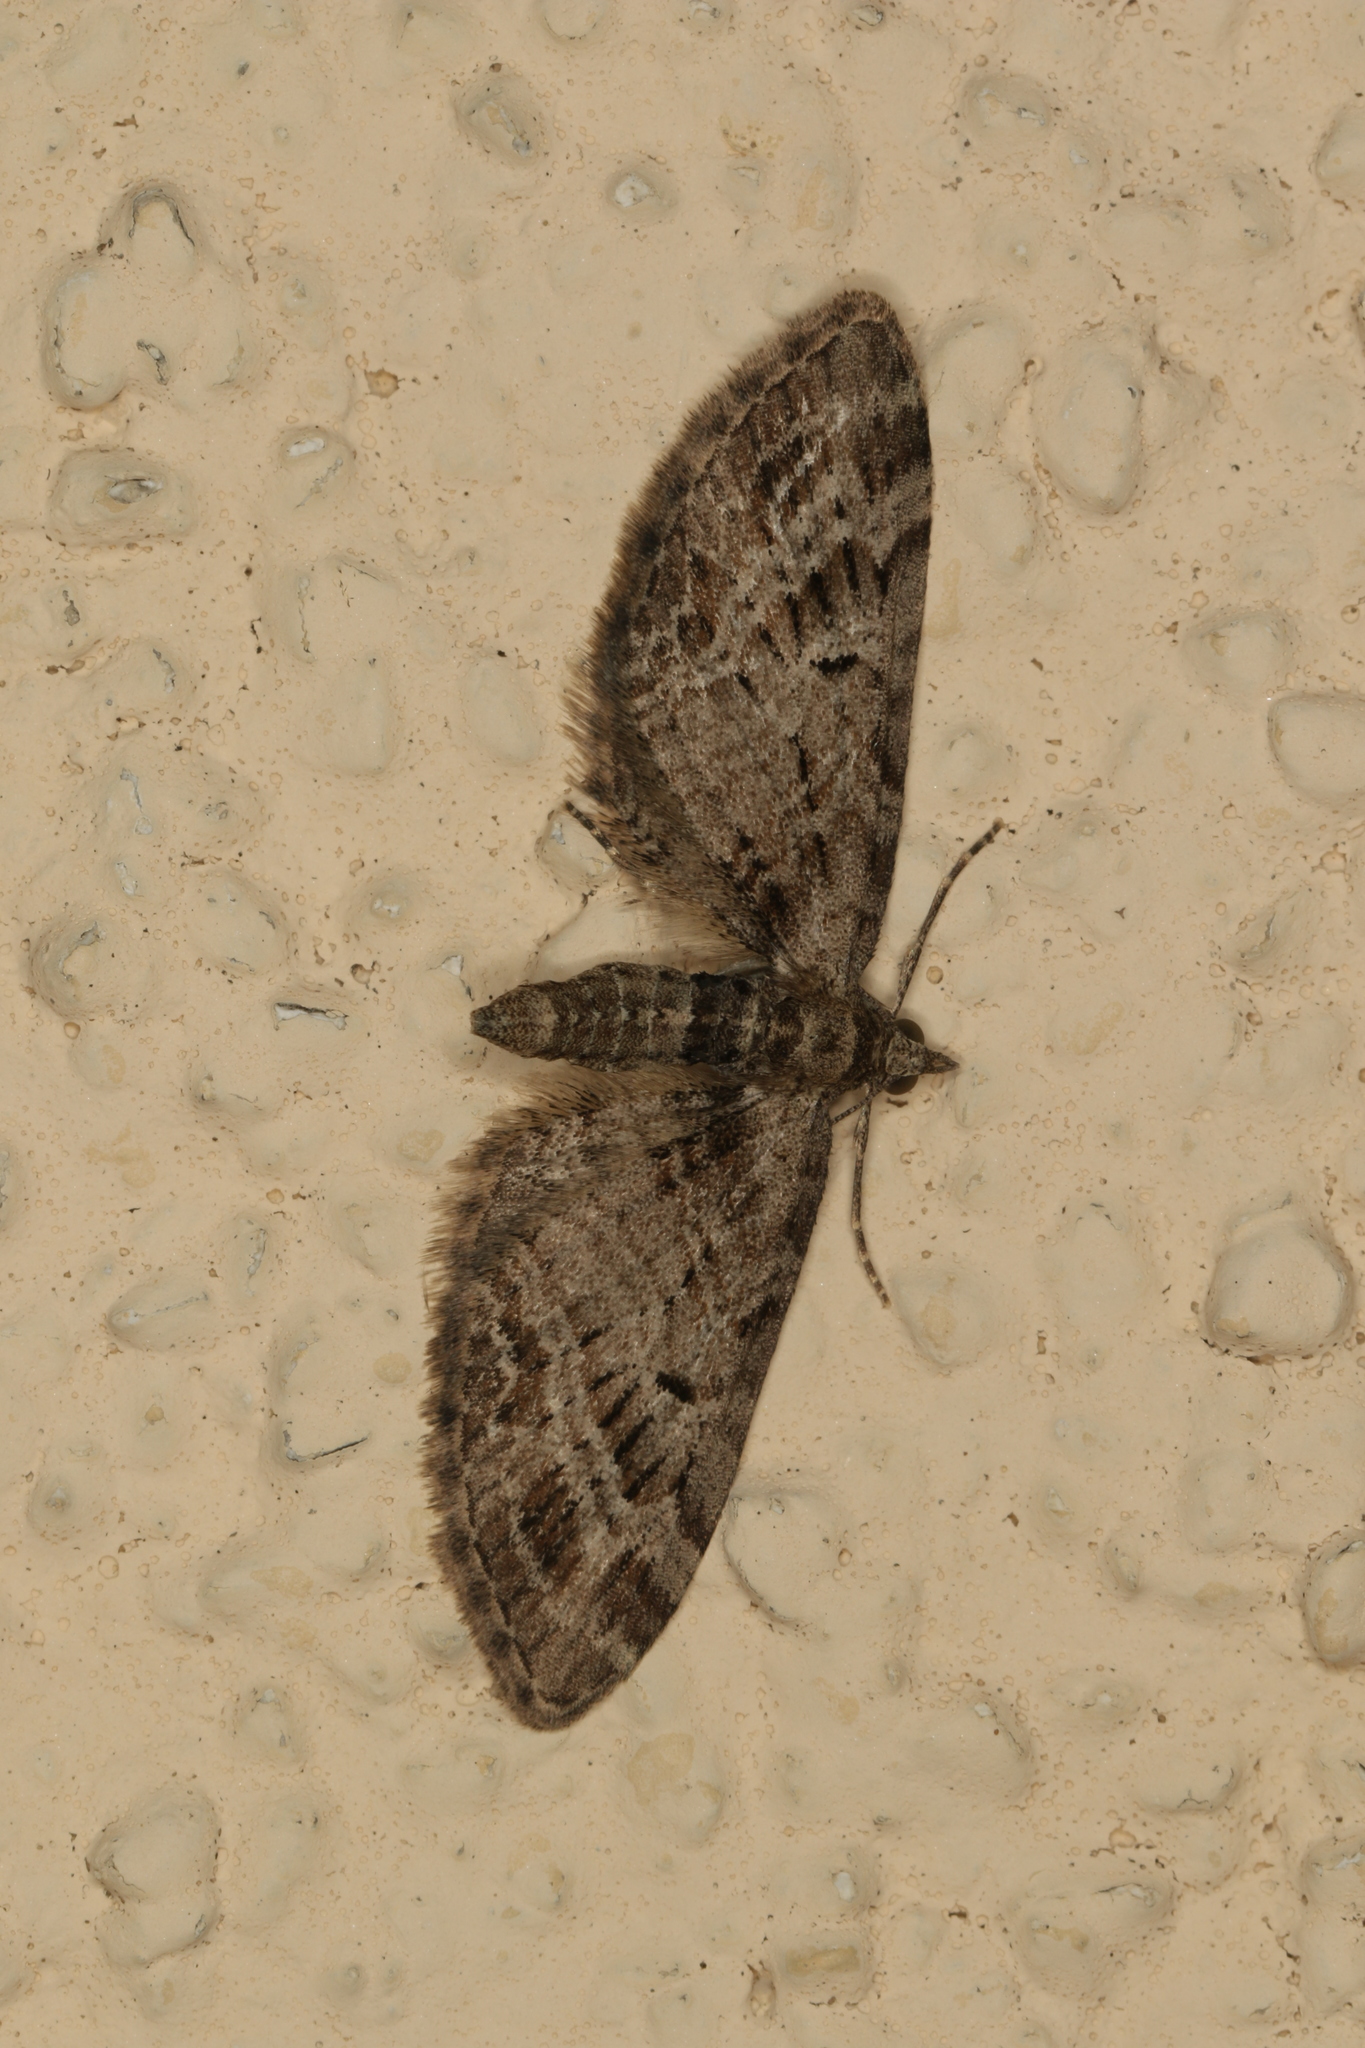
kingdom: Animalia
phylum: Arthropoda
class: Insecta
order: Lepidoptera
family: Geometridae
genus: Eupithecia
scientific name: Eupithecia exiguata
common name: Mottled pug
